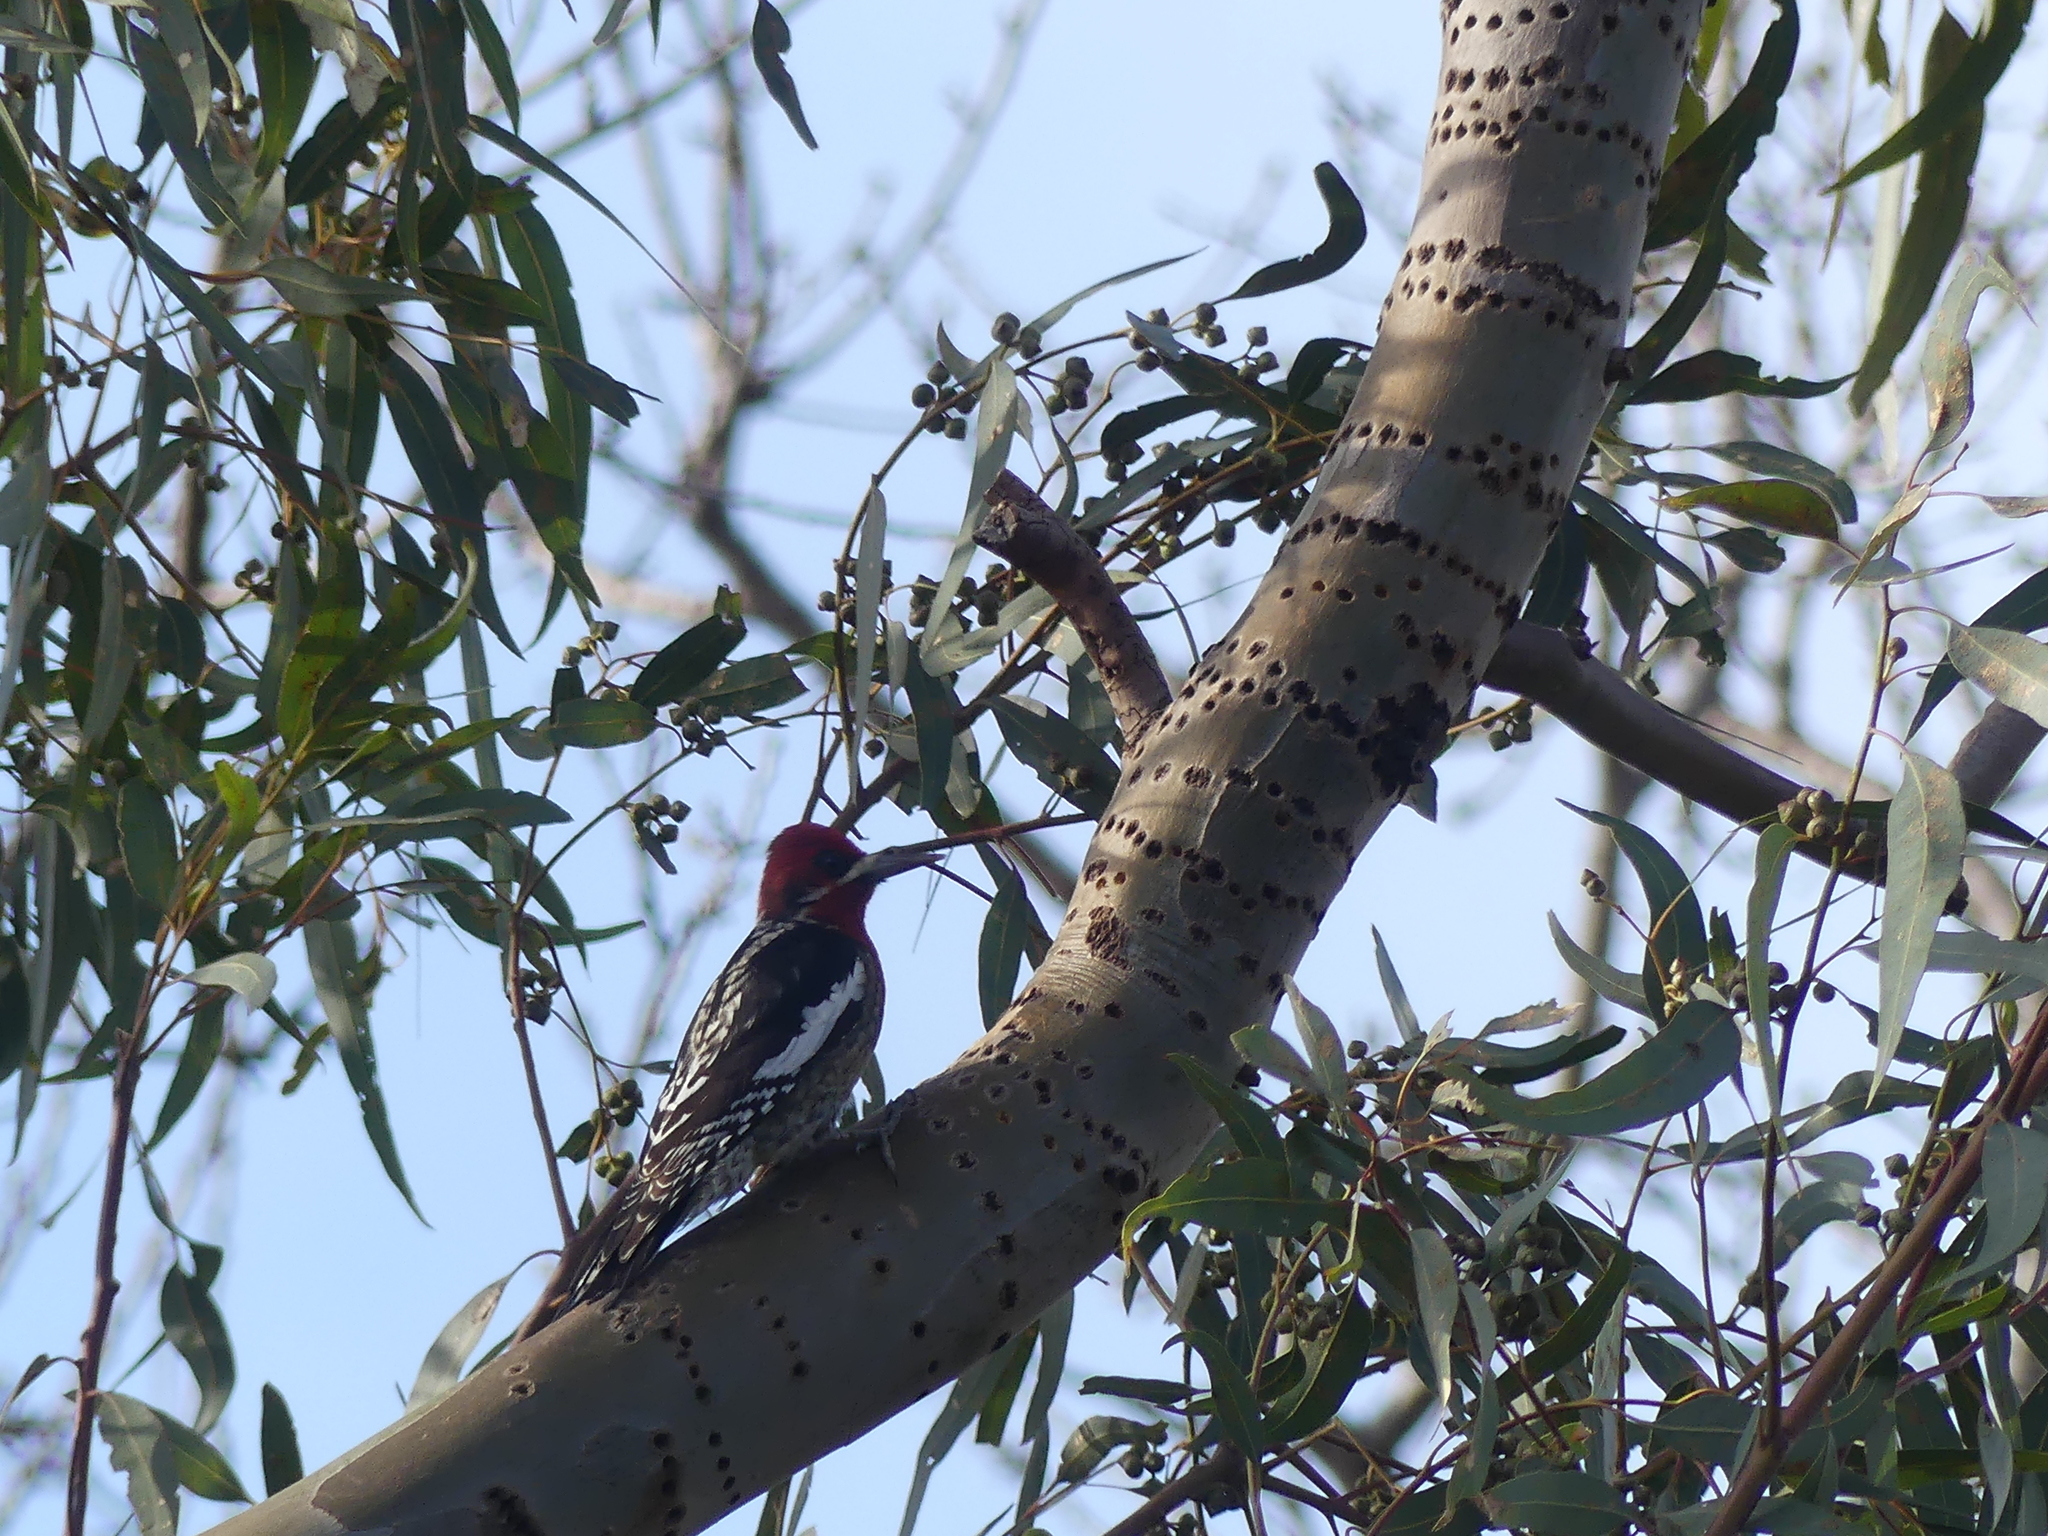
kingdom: Animalia
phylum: Chordata
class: Aves
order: Piciformes
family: Picidae
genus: Sphyrapicus
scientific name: Sphyrapicus ruber
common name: Red-breasted sapsucker
